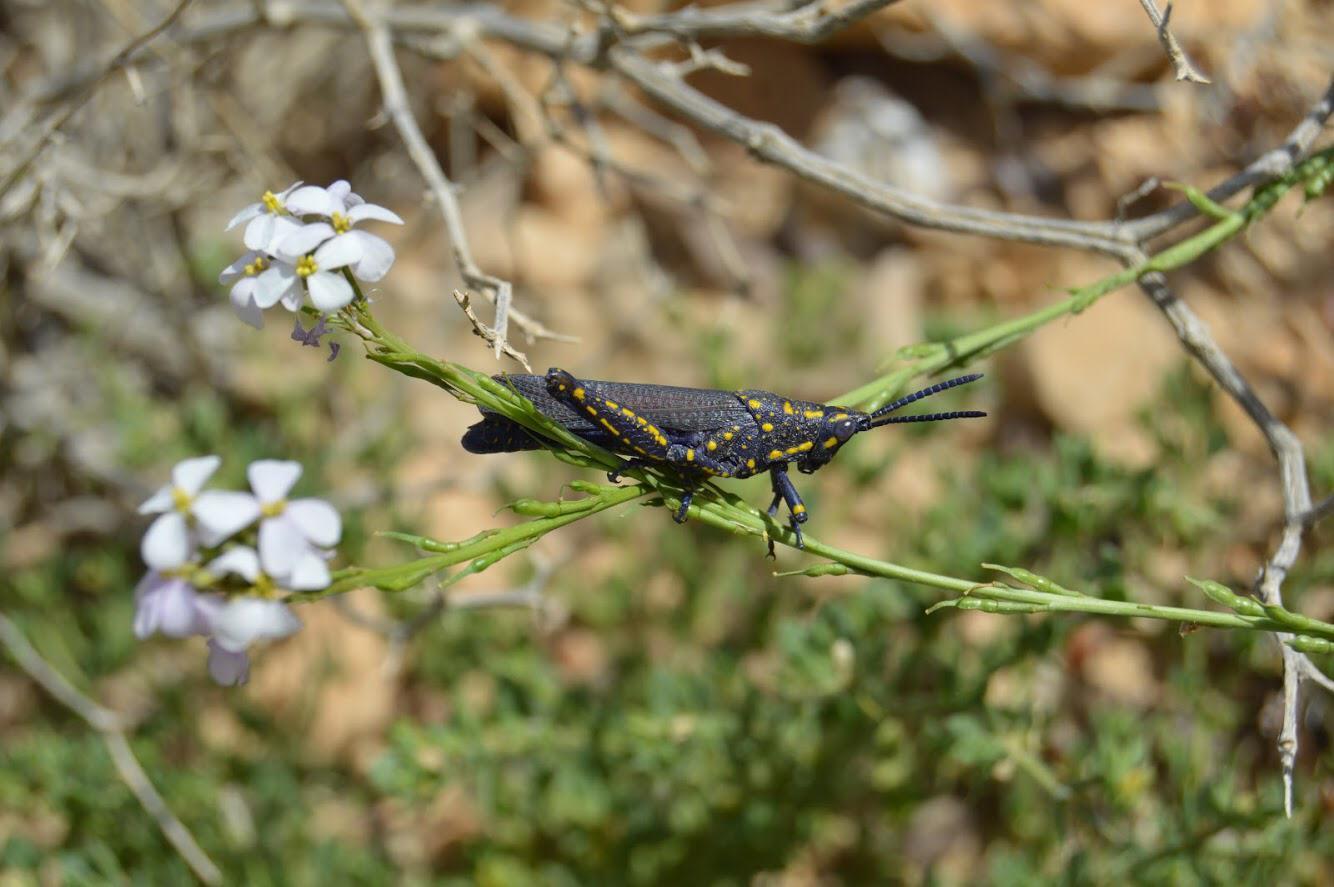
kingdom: Animalia
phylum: Arthropoda
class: Insecta
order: Orthoptera
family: Pyrgomorphidae
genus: Poekilocerus
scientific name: Poekilocerus bufonius
